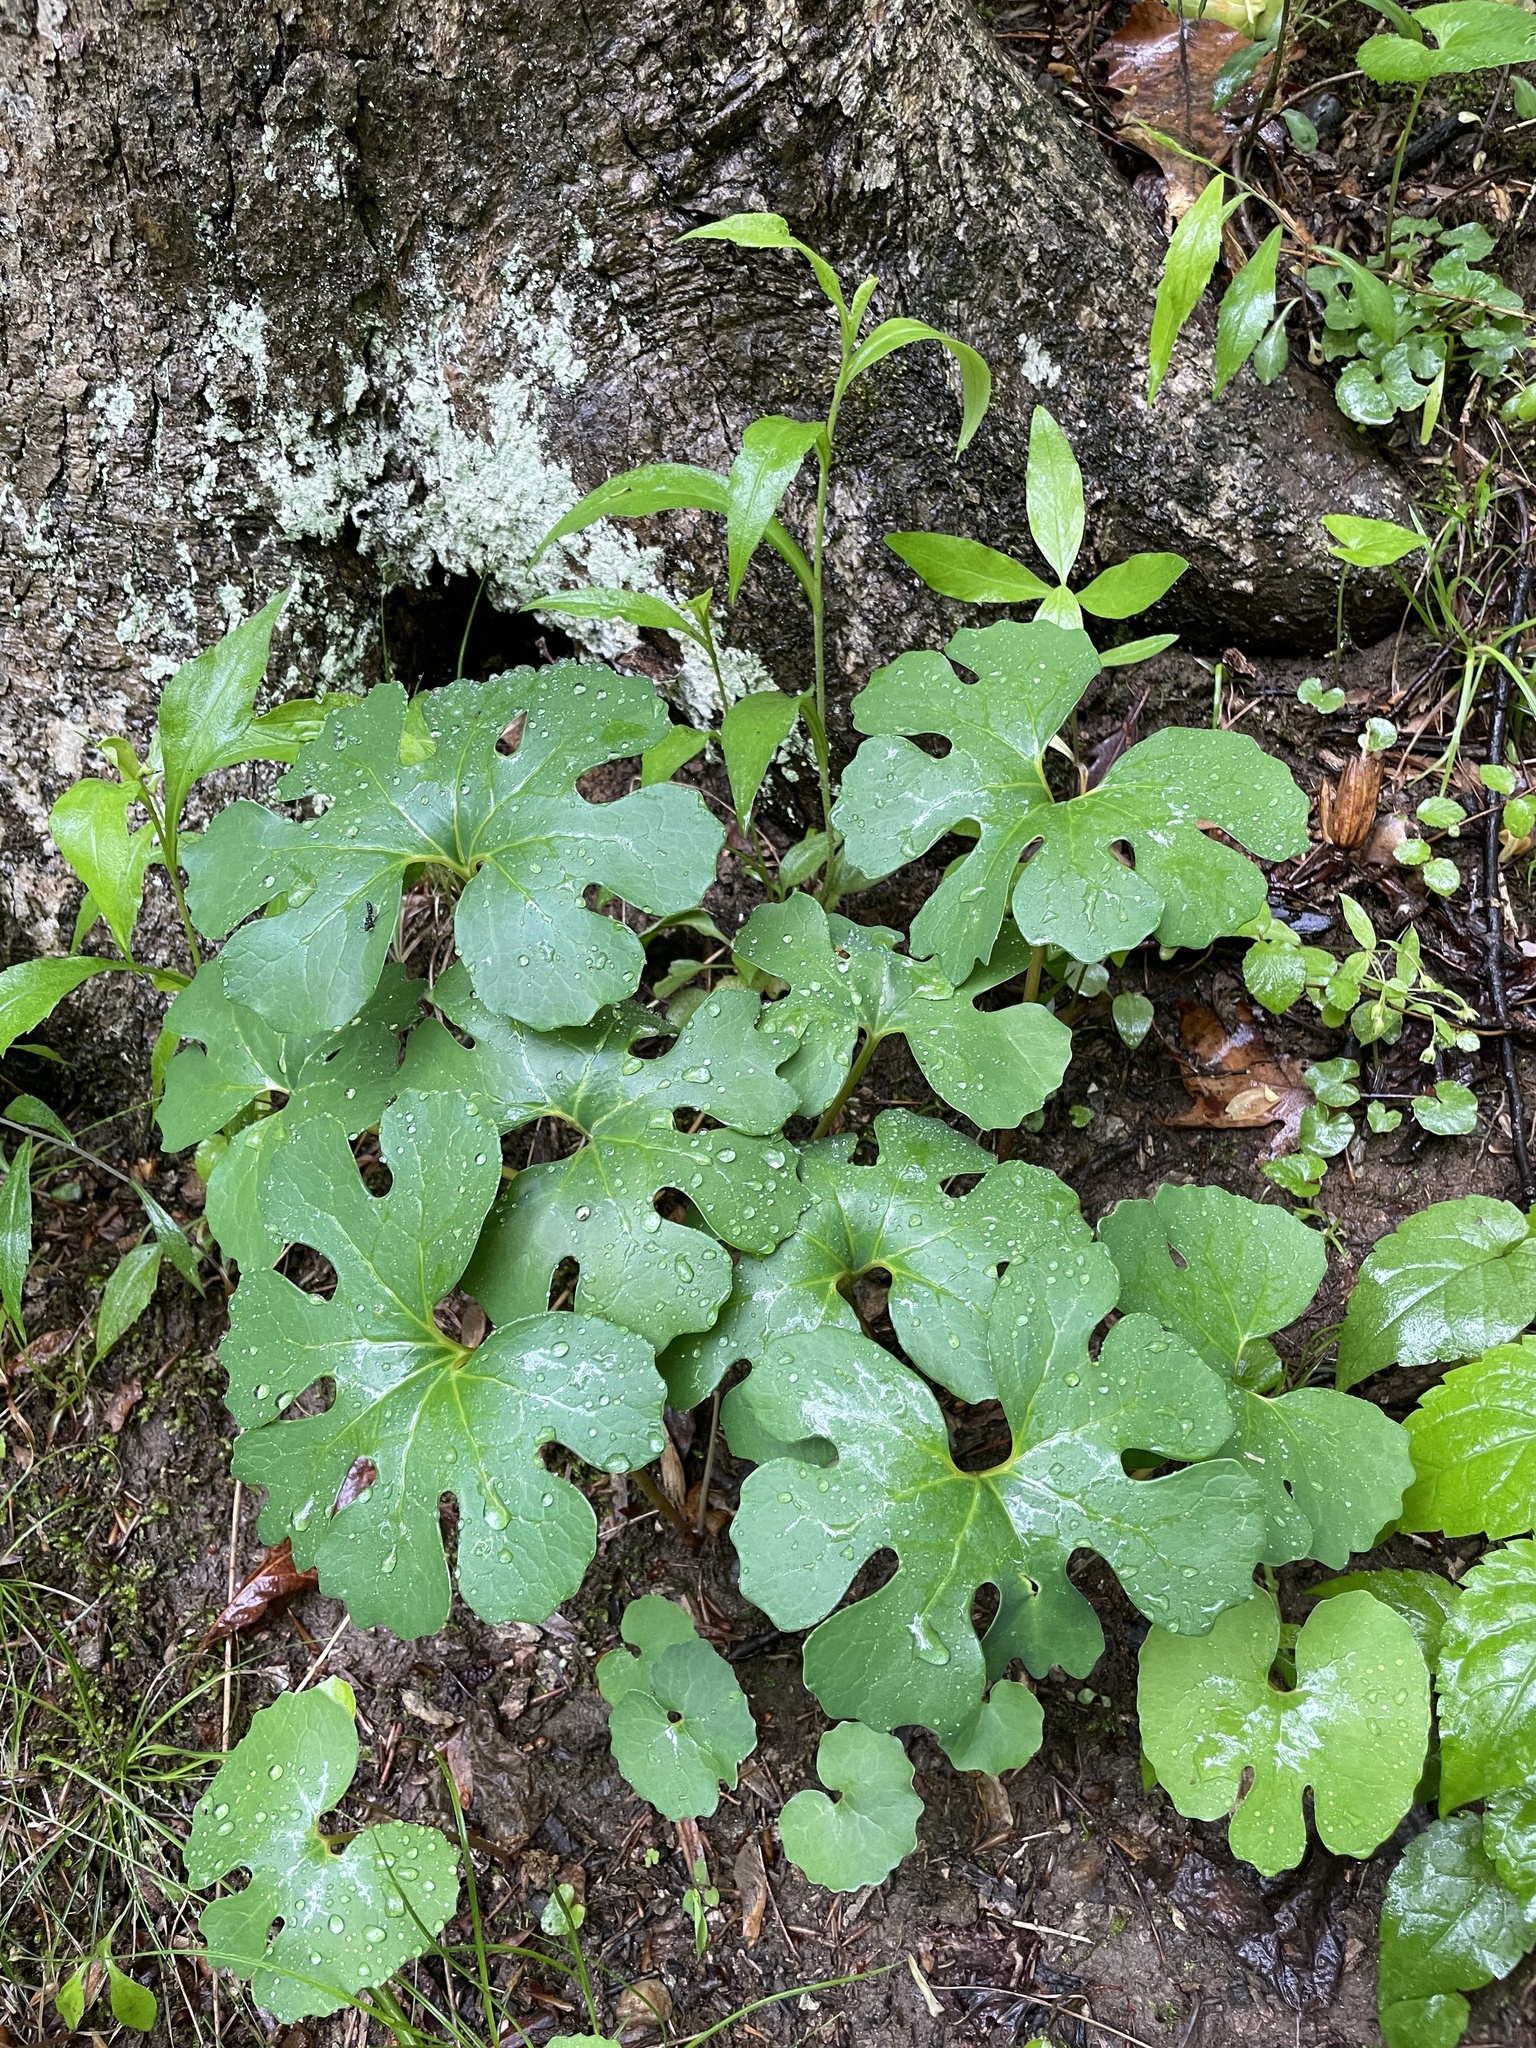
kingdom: Plantae
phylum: Tracheophyta
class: Magnoliopsida
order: Ranunculales
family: Papaveraceae
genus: Sanguinaria
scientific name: Sanguinaria canadensis
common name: Bloodroot
